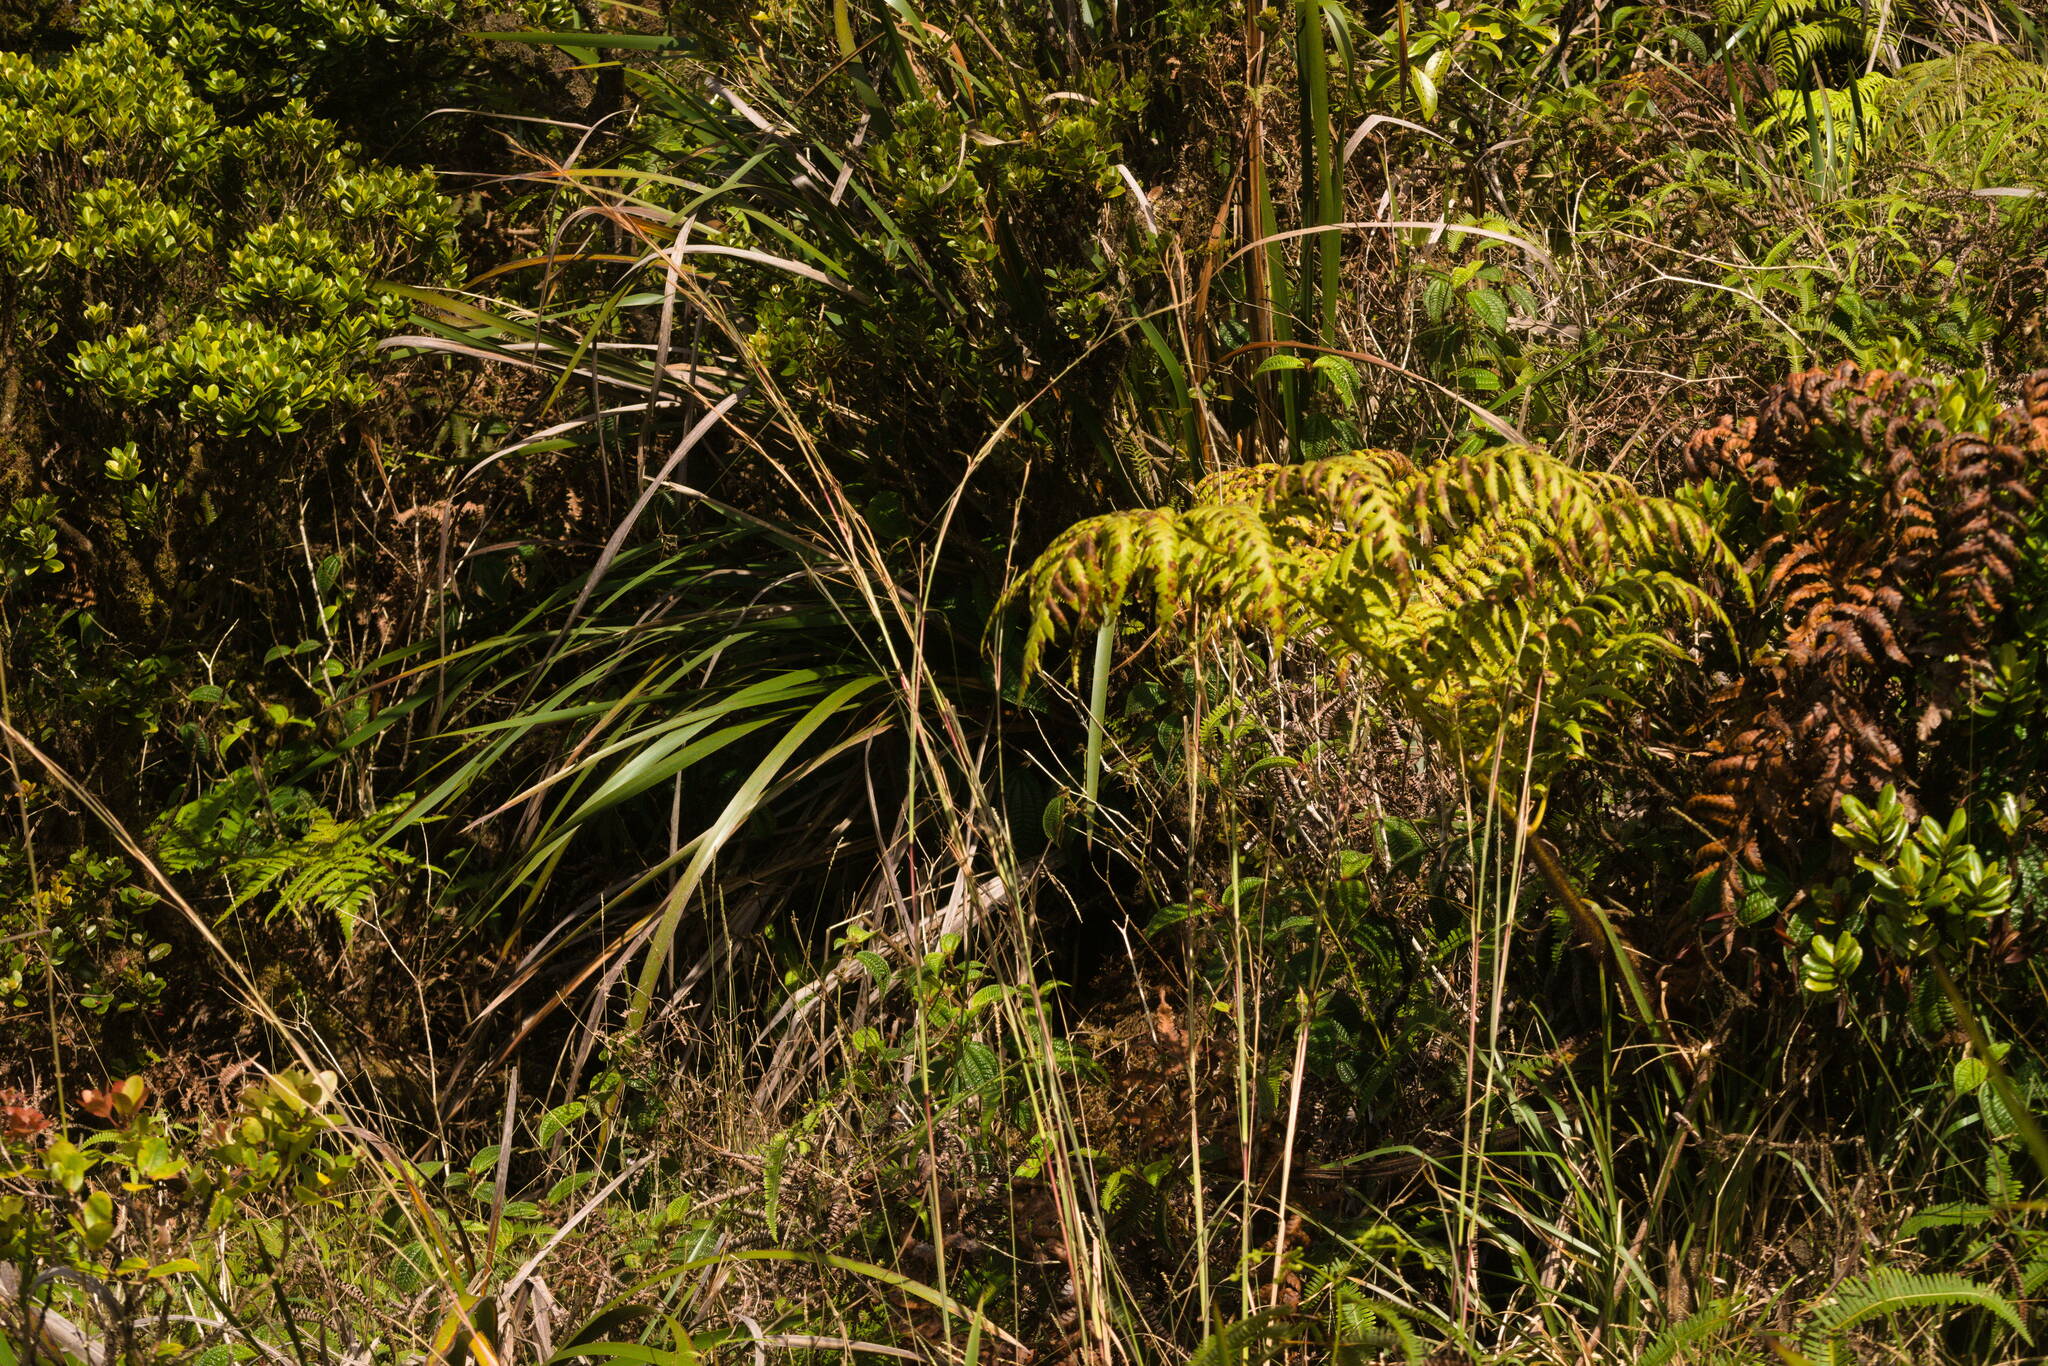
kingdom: Plantae
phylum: Tracheophyta
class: Liliopsida
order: Poales
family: Poaceae
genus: Andropogon
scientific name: Andropogon virginicus
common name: Broomsedge bluestem
